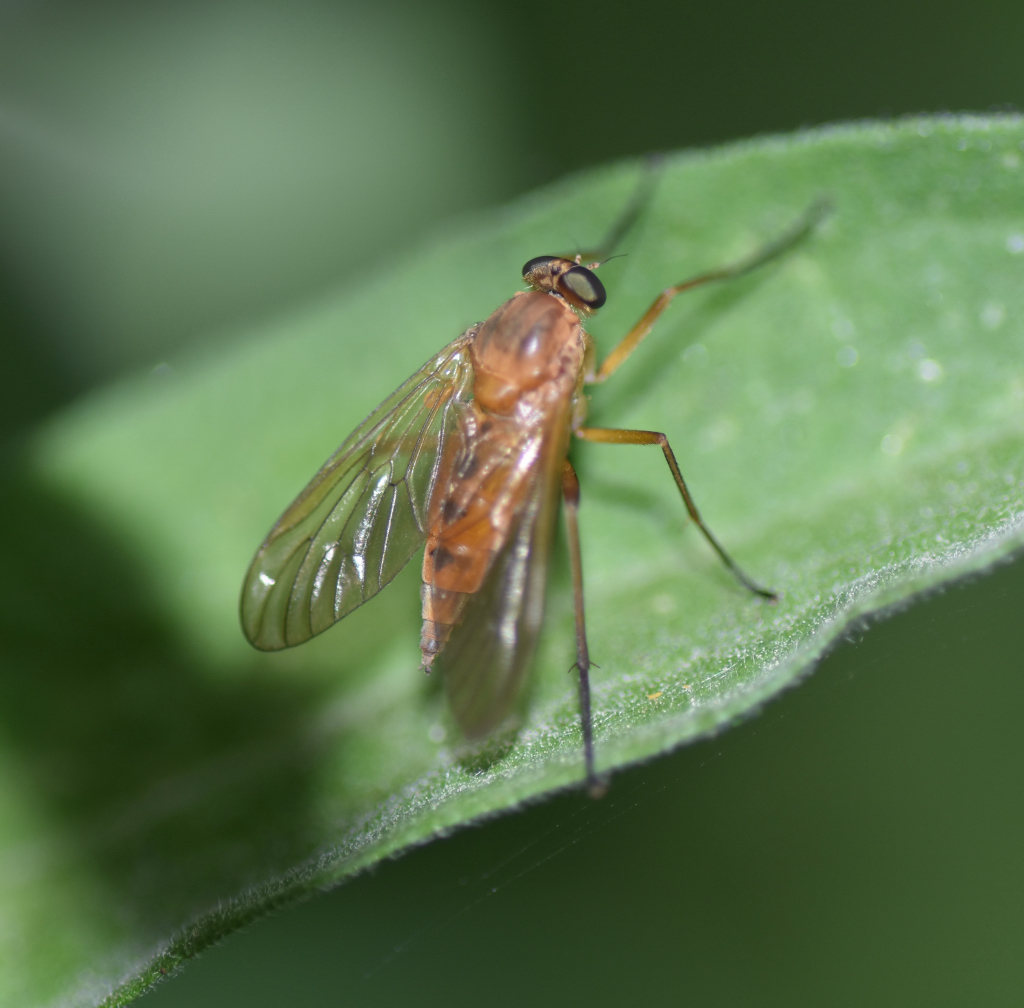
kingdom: Animalia
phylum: Arthropoda
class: Insecta
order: Diptera
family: Rhagionidae
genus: Rhagio
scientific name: Rhagio tringaria
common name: Marsh snipefly
